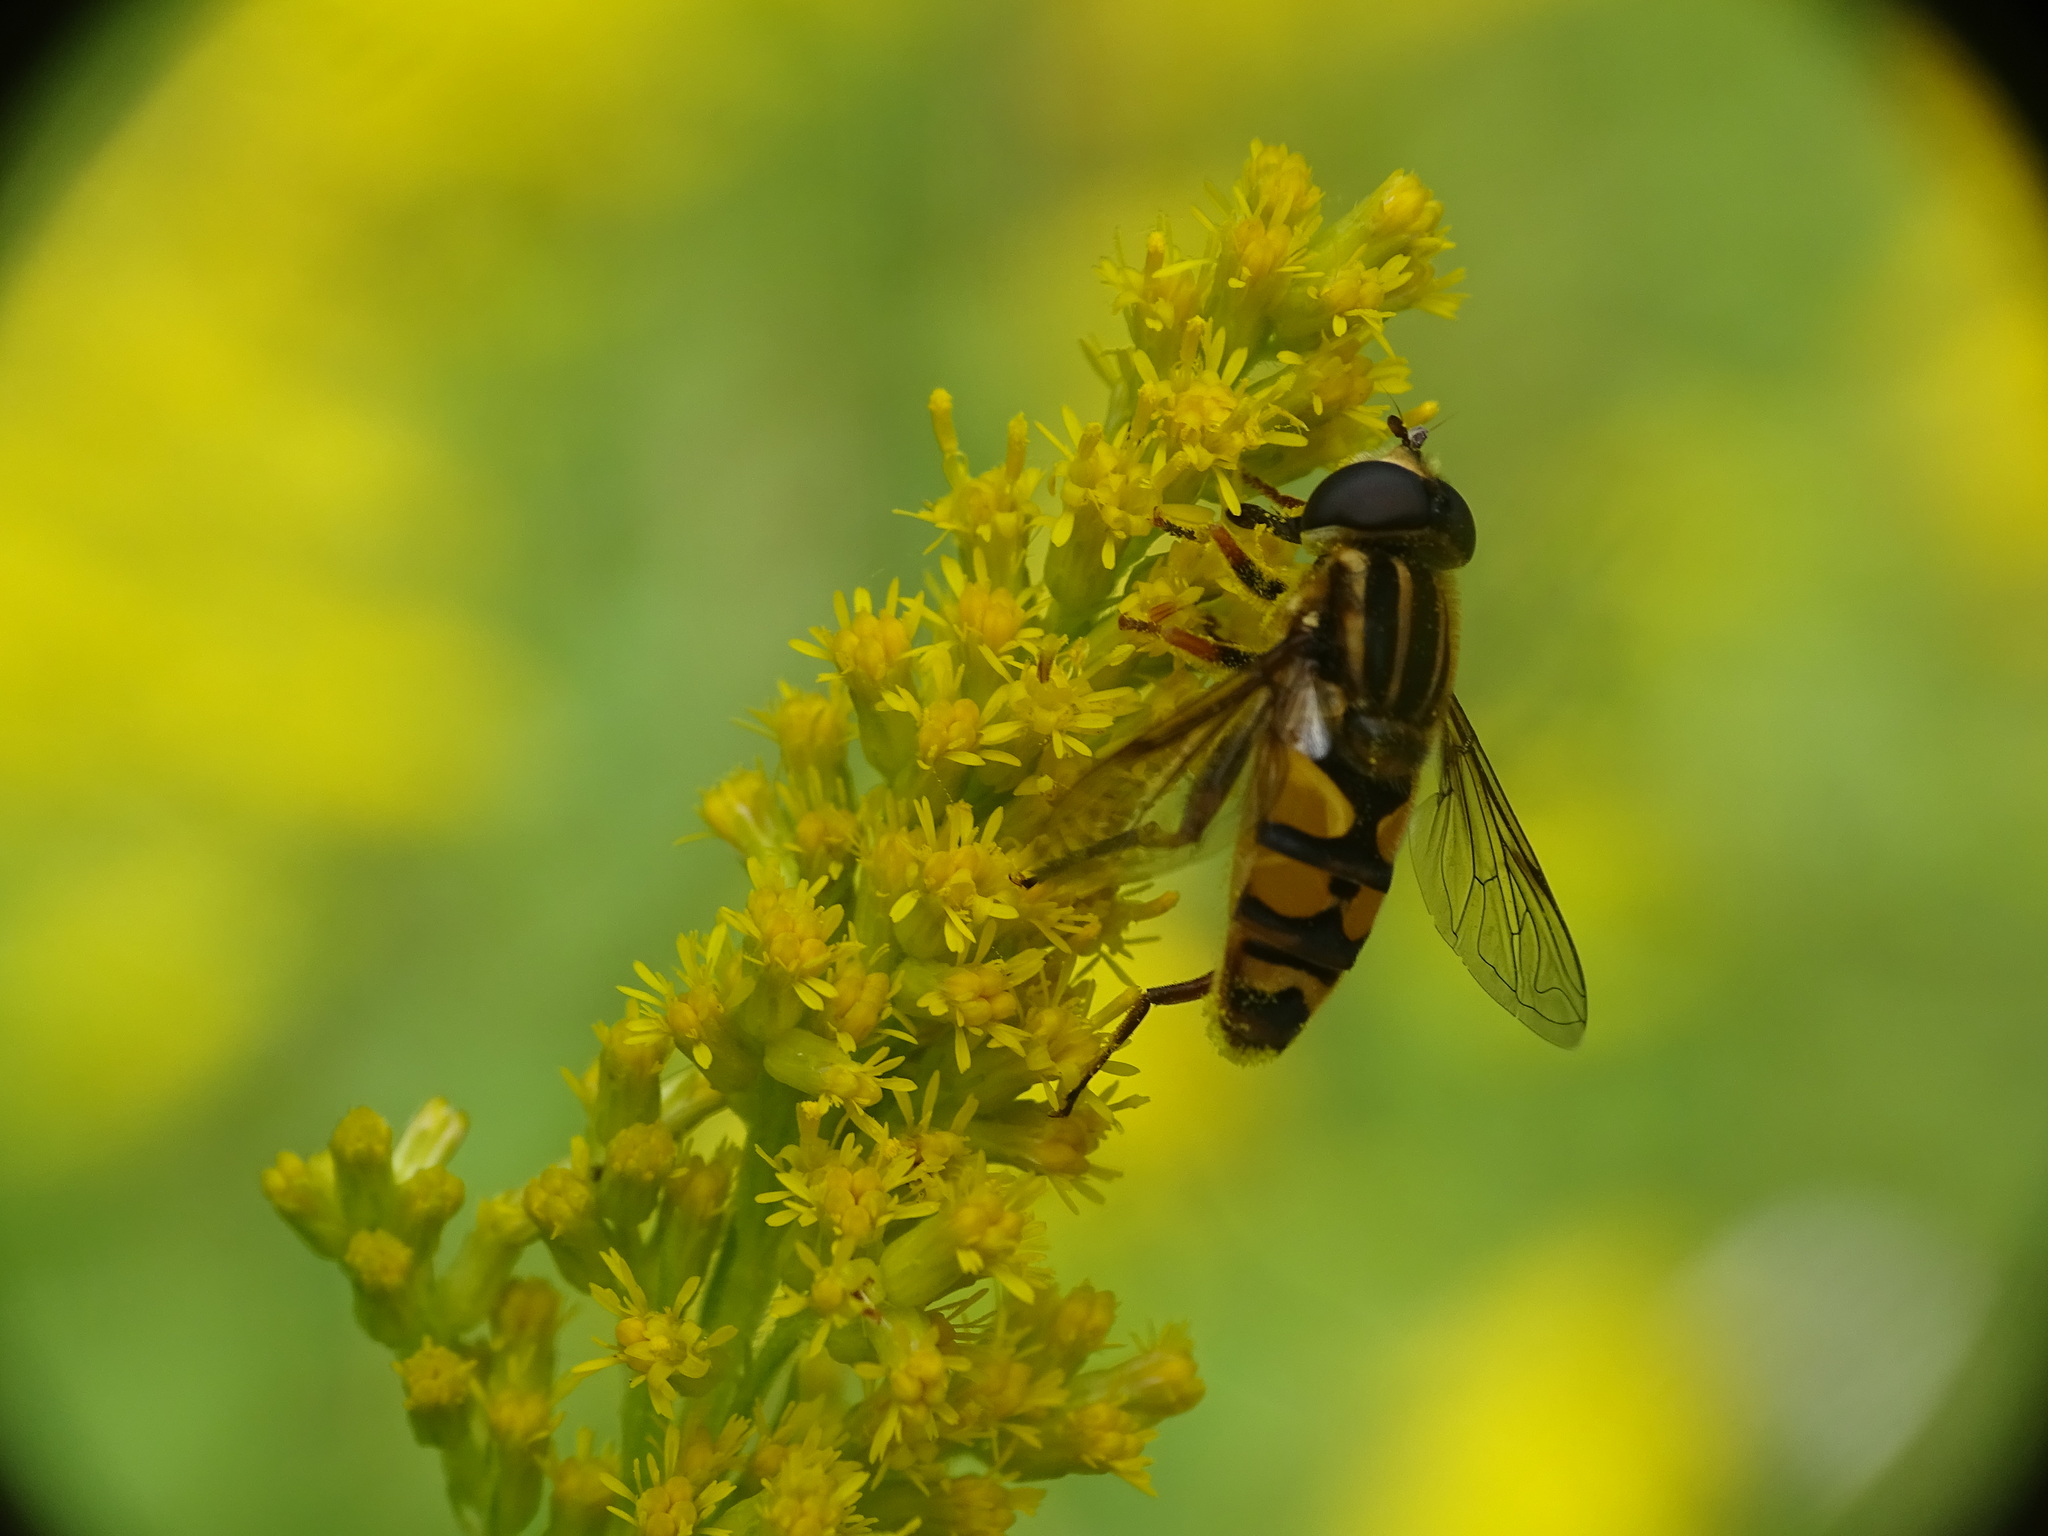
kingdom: Animalia
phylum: Arthropoda
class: Insecta
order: Diptera
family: Syrphidae
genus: Helophilus
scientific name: Helophilus fasciatus
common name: Narrow-headed marsh fly
